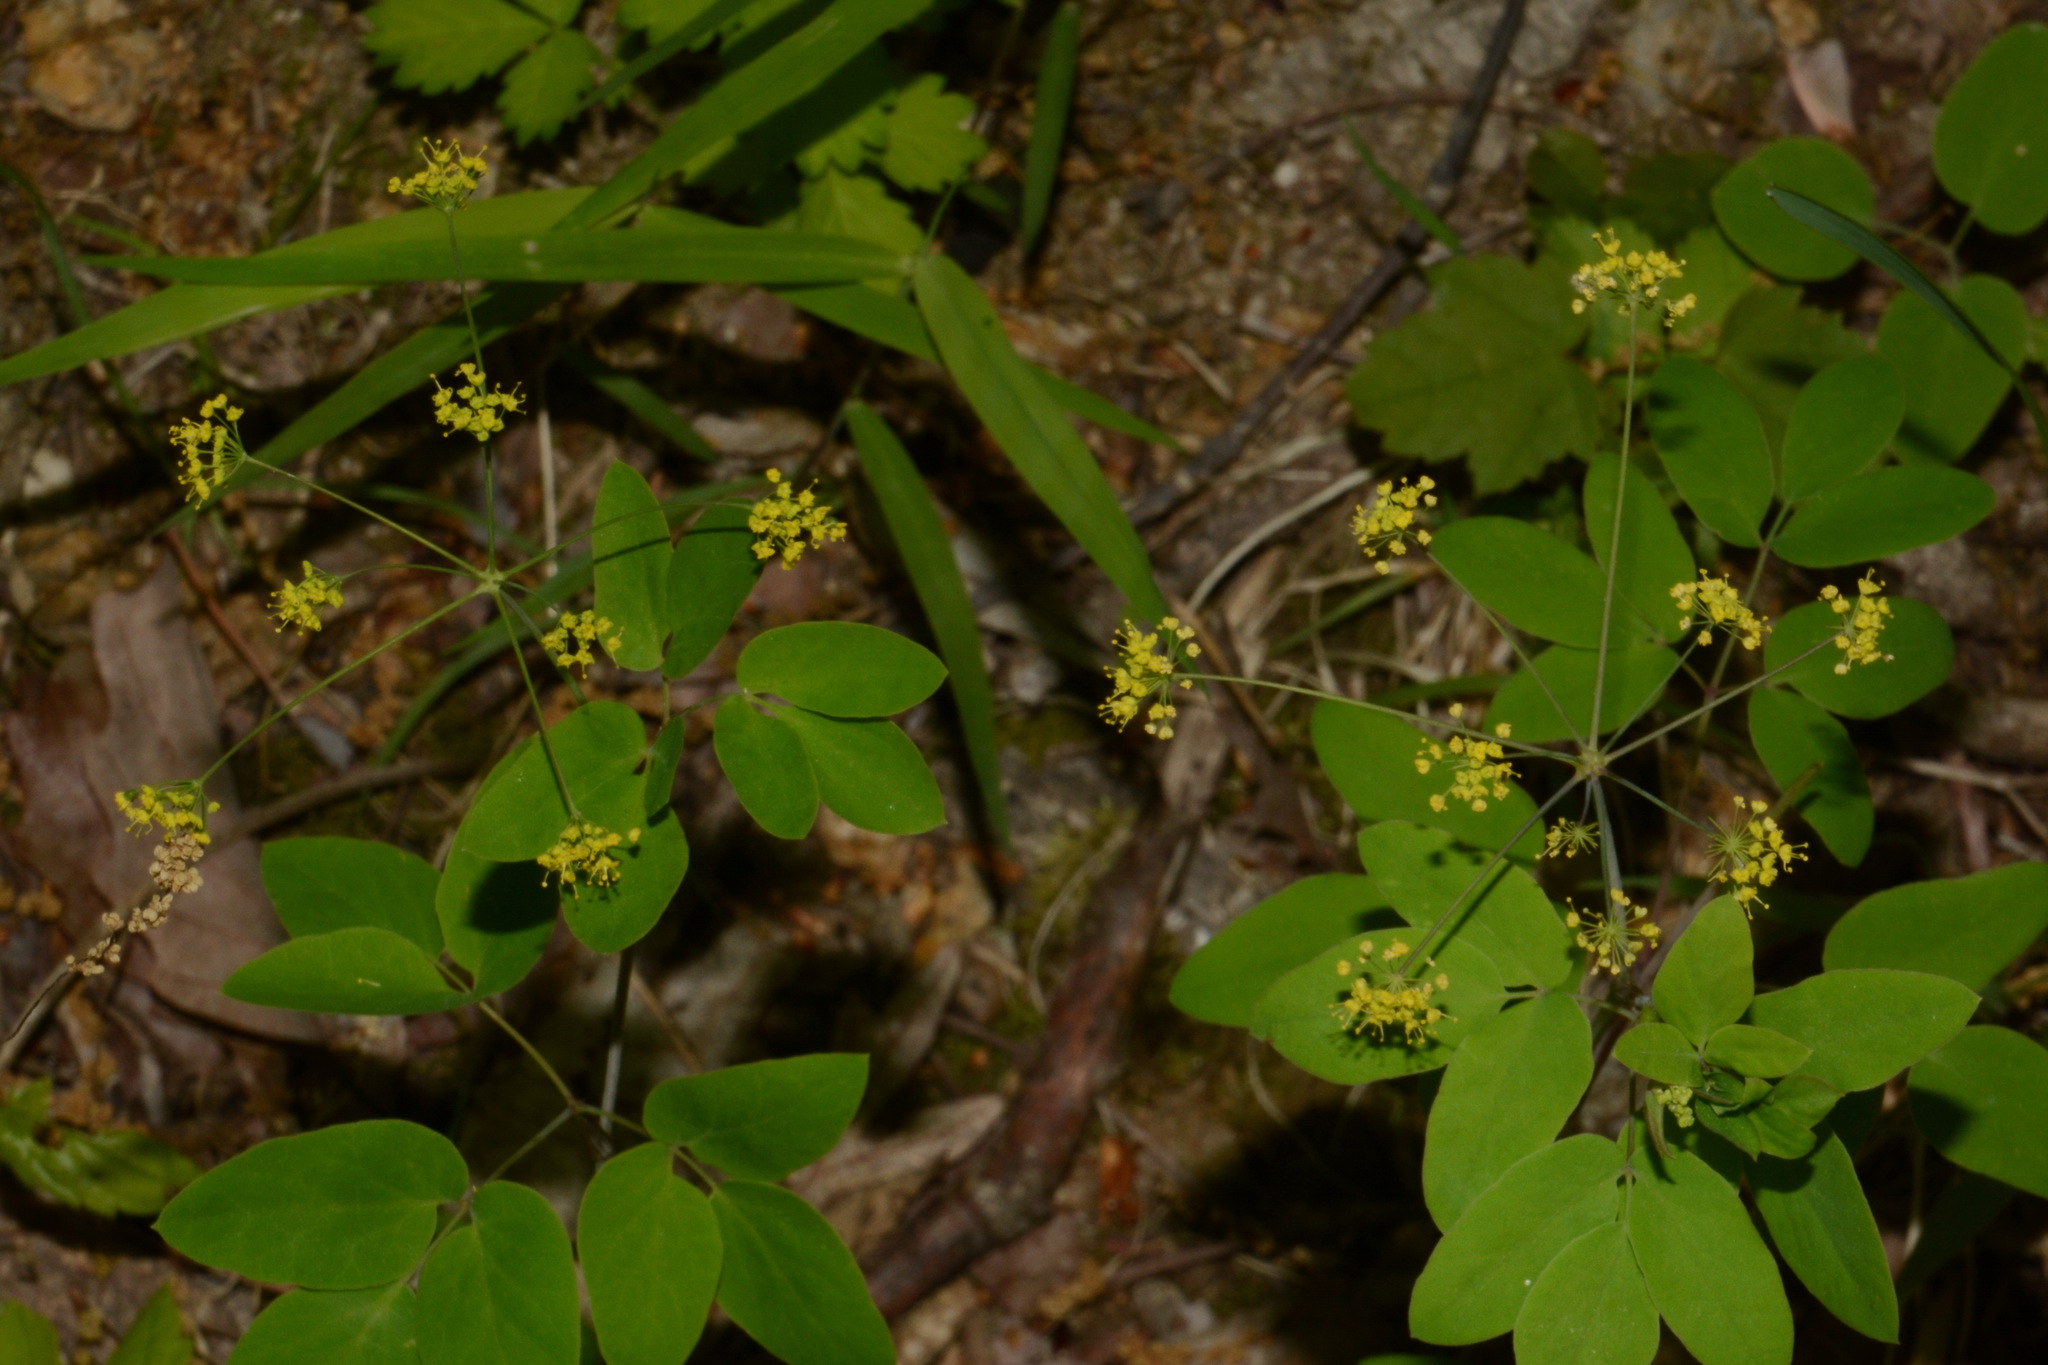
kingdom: Plantae
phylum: Tracheophyta
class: Magnoliopsida
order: Apiales
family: Apiaceae
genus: Taenidia
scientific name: Taenidia integerrima
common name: Golden alexander
